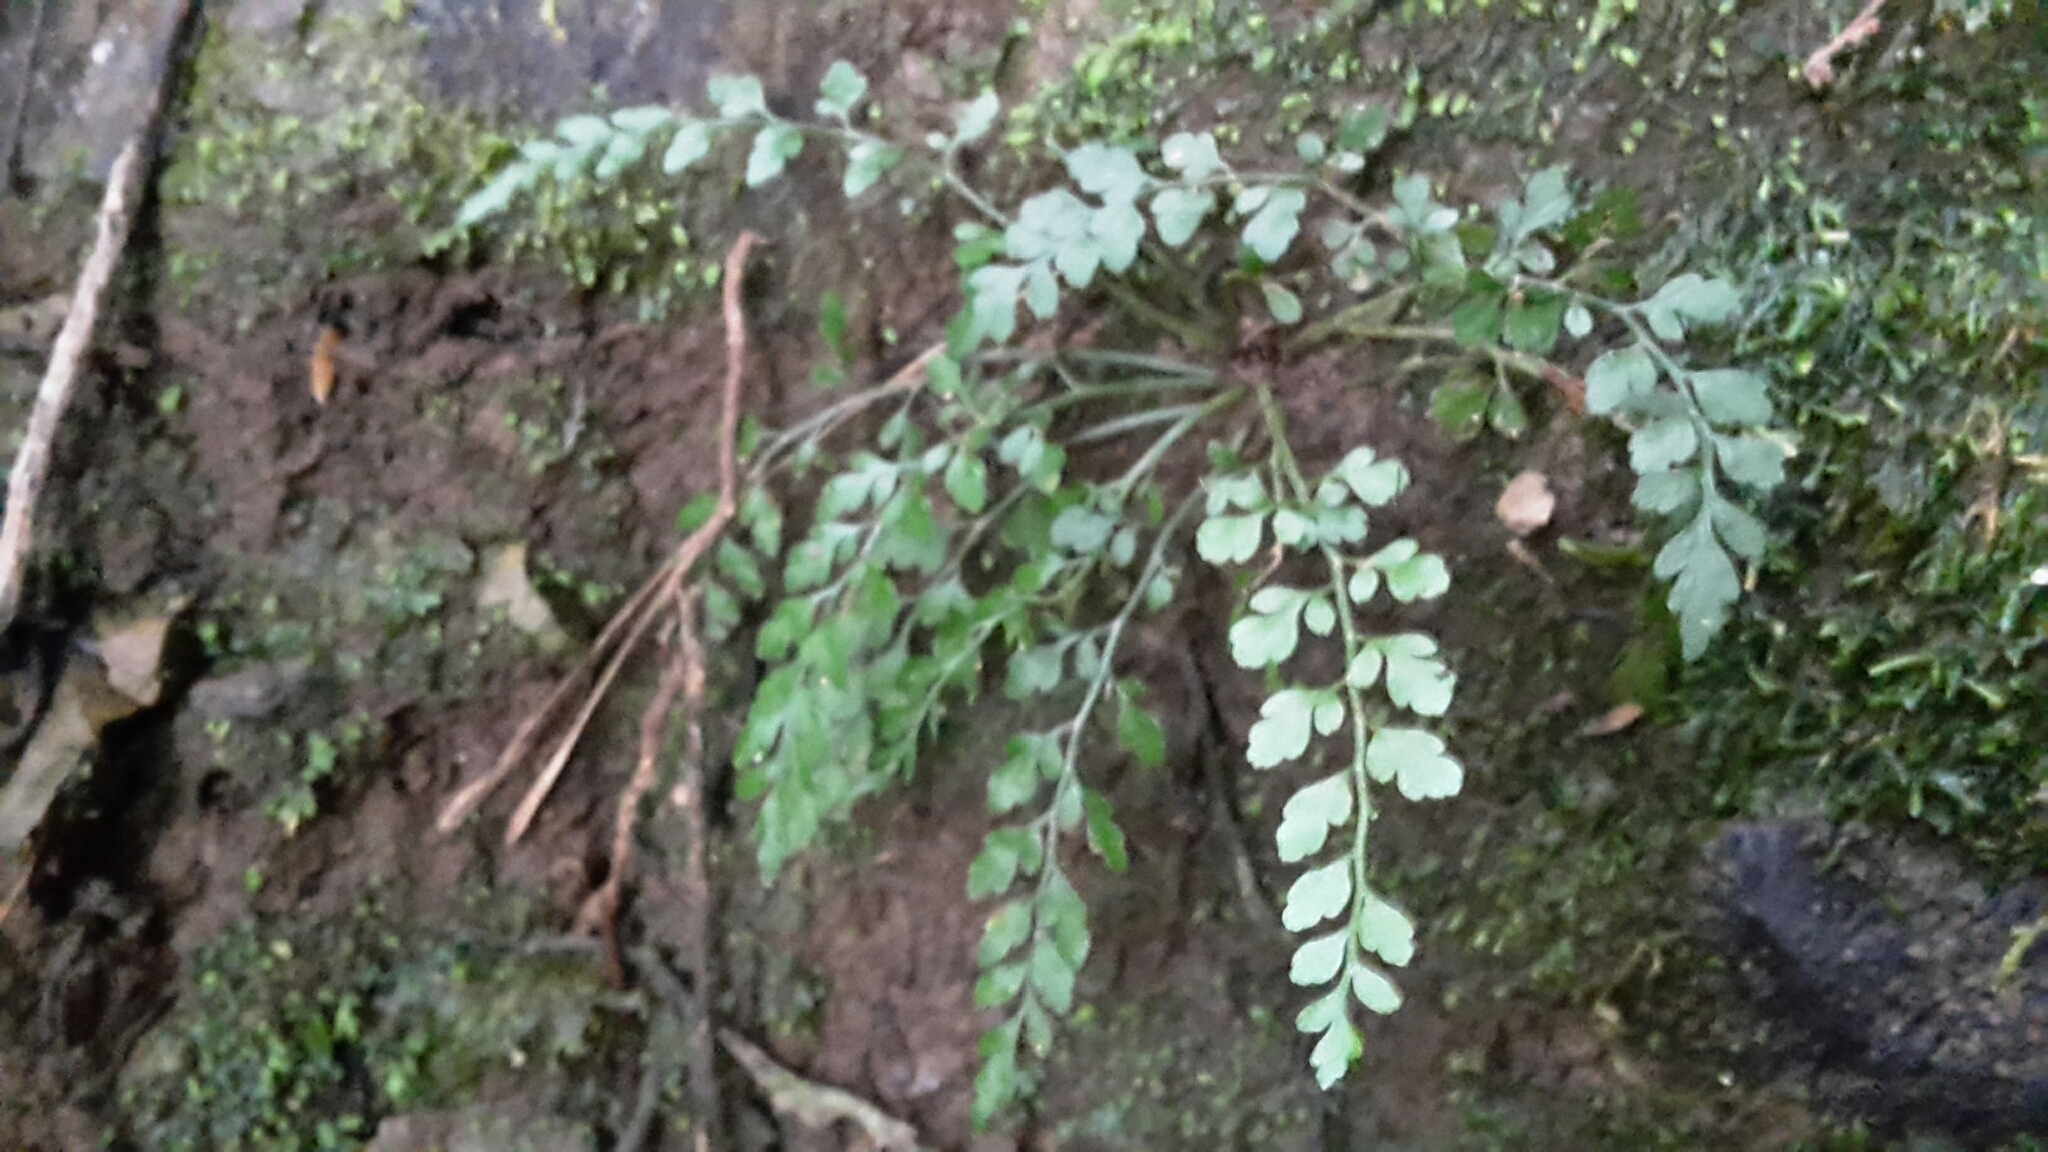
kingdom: Plantae
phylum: Tracheophyta
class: Polypodiopsida
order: Polypodiales
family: Aspleniaceae
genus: Asplenium
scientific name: Asplenium hookerianum
